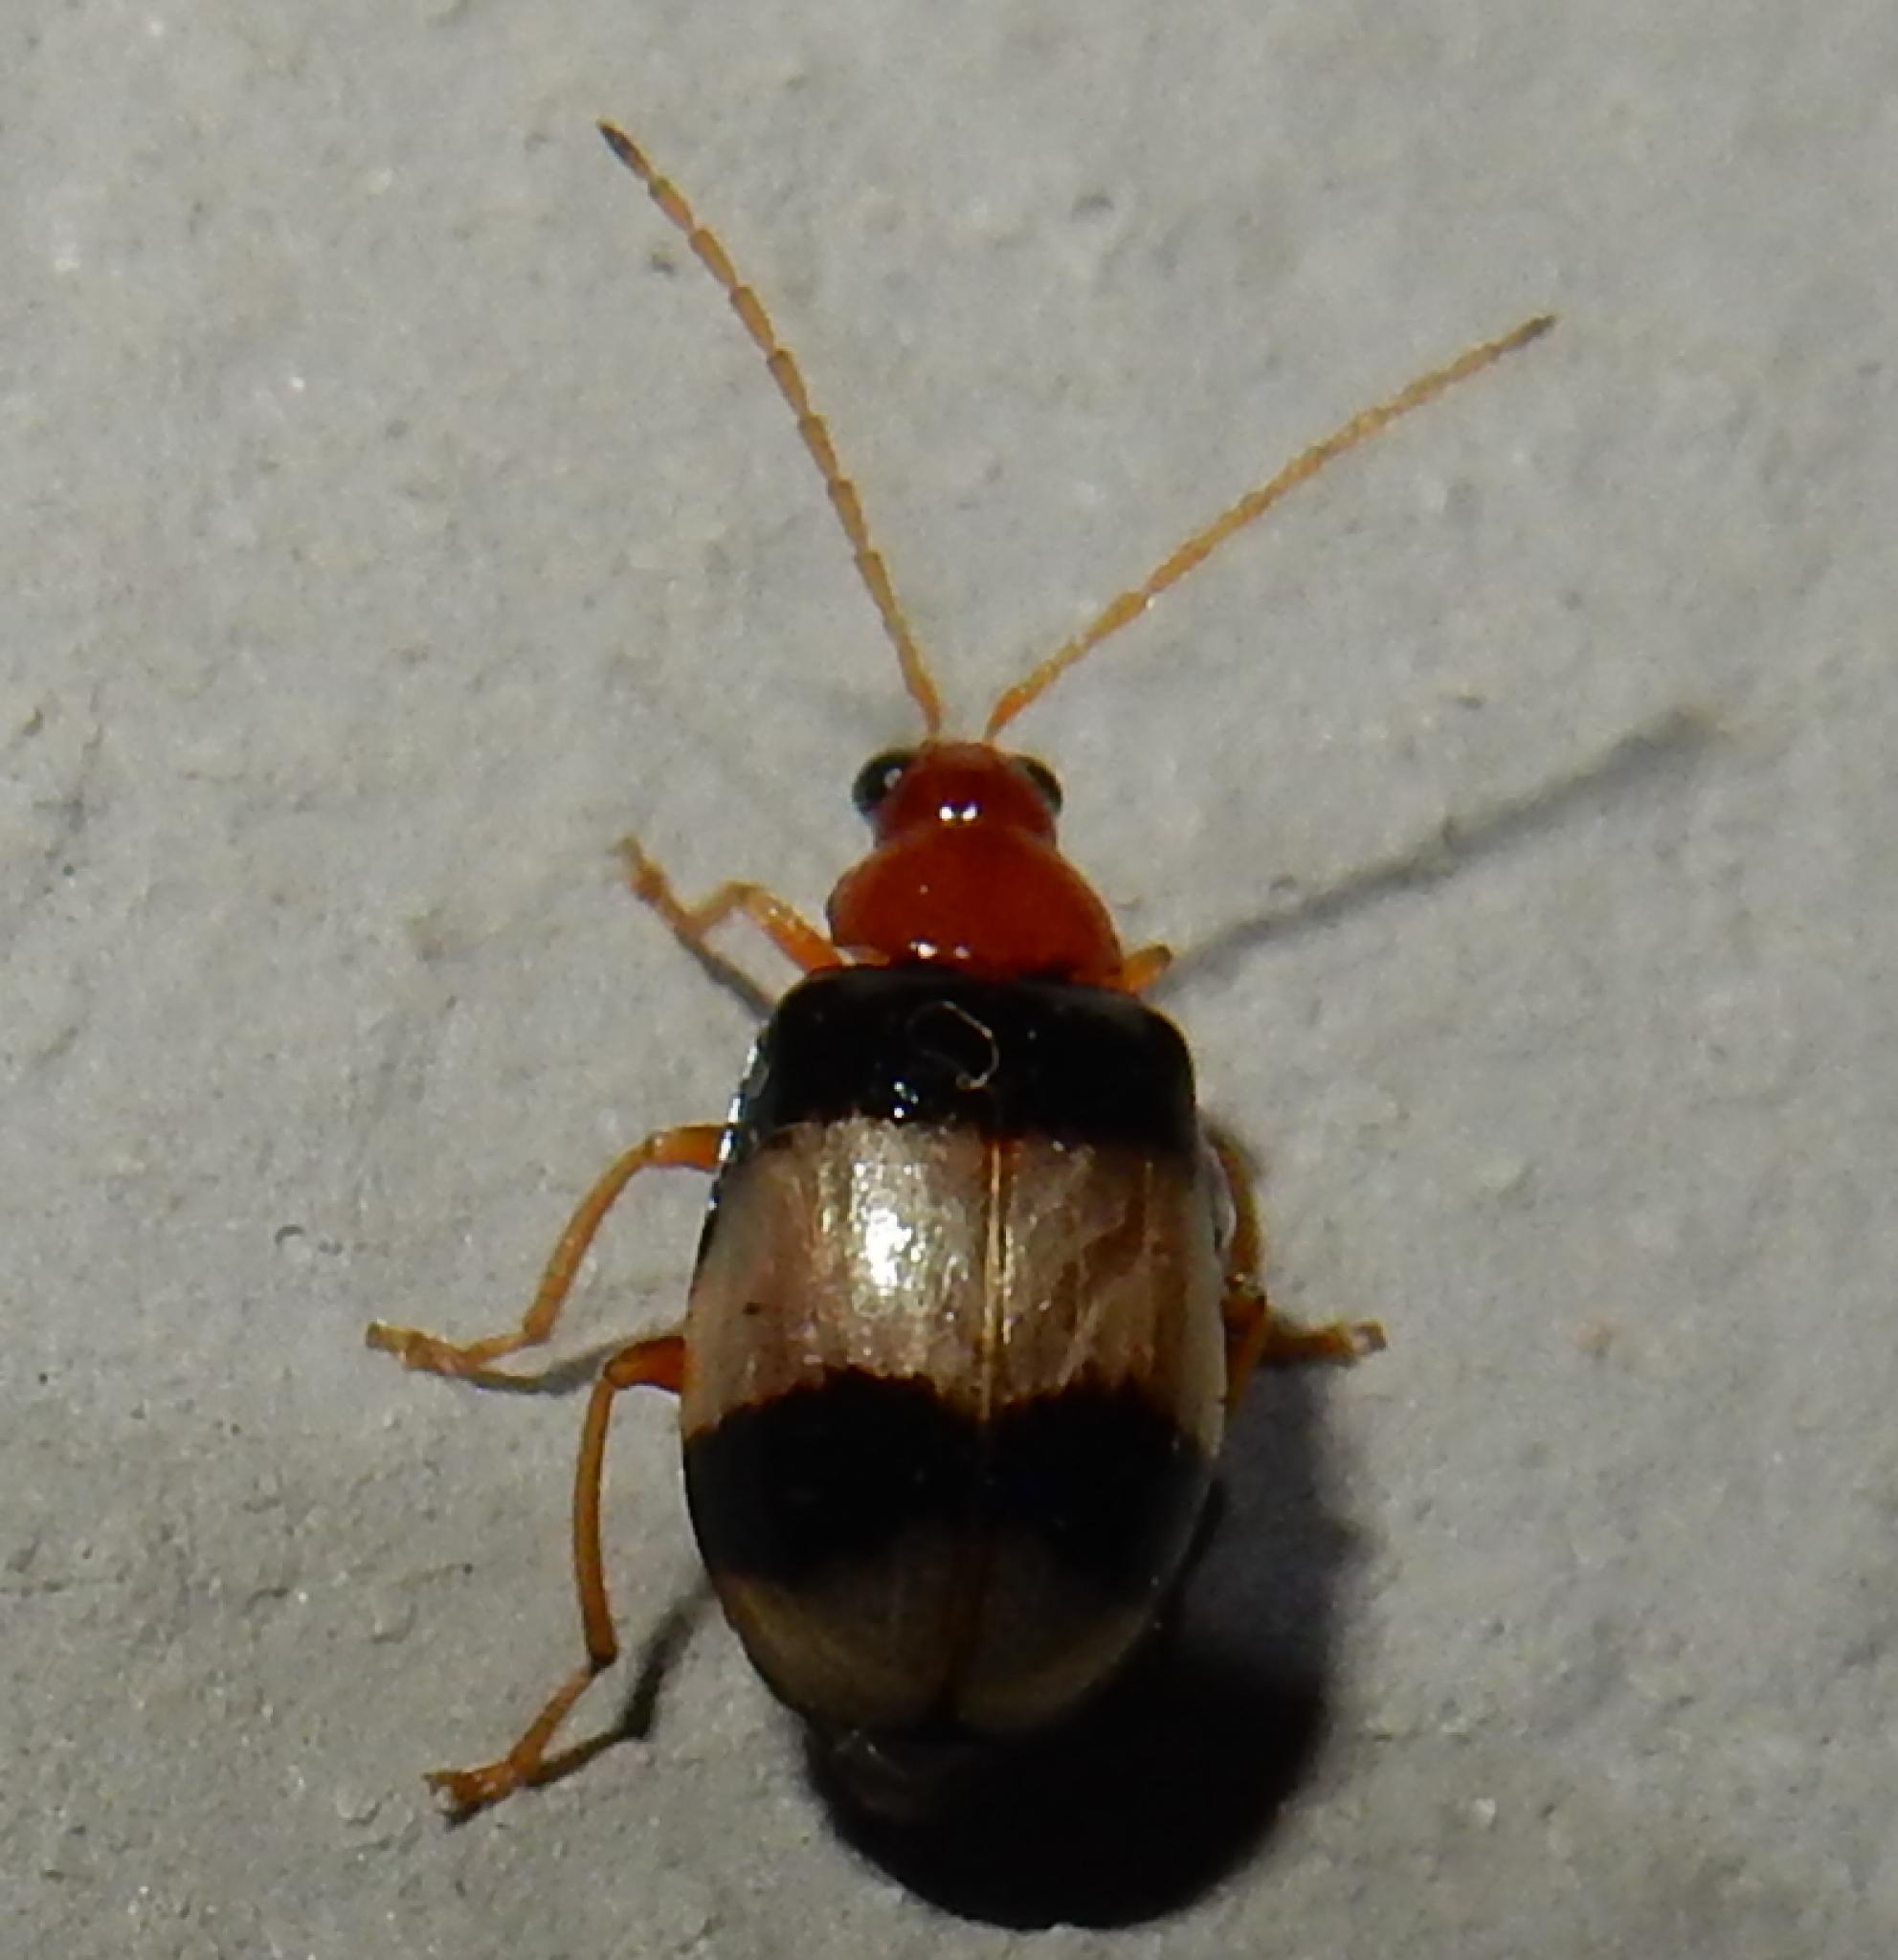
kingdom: Animalia
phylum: Arthropoda
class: Insecta
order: Coleoptera
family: Chrysomelidae
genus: Monolepta
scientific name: Monolepta
